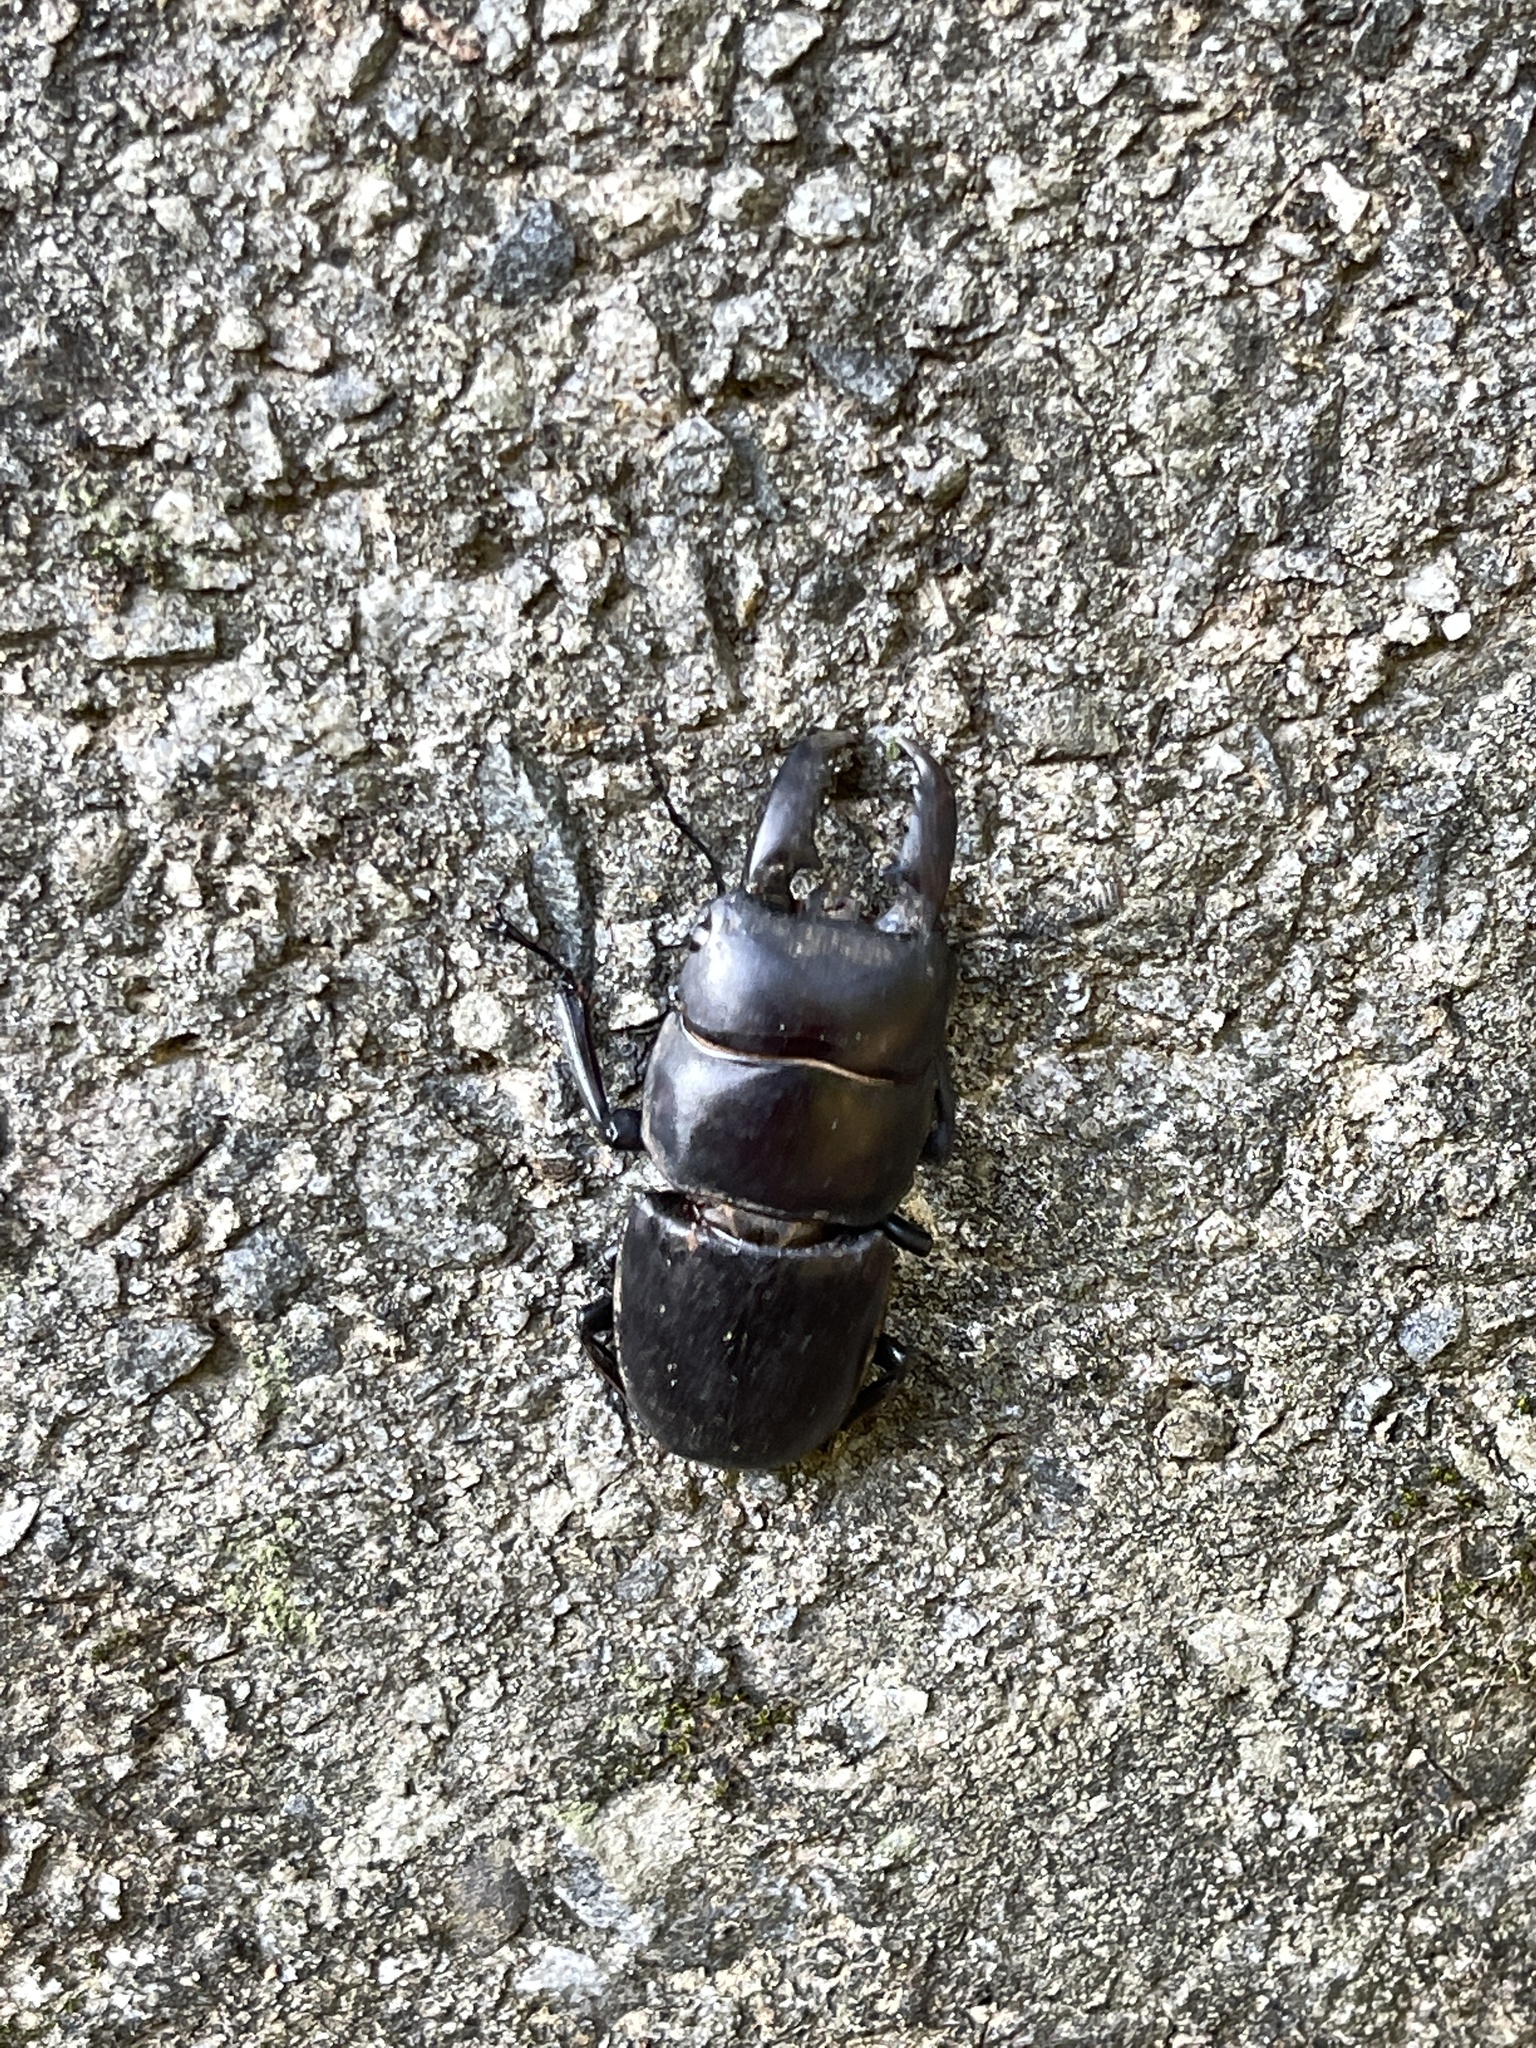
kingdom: Animalia
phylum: Arthropoda
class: Insecta
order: Coleoptera
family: Lucanidae
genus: Serrognathus
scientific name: Serrognathus titanus
